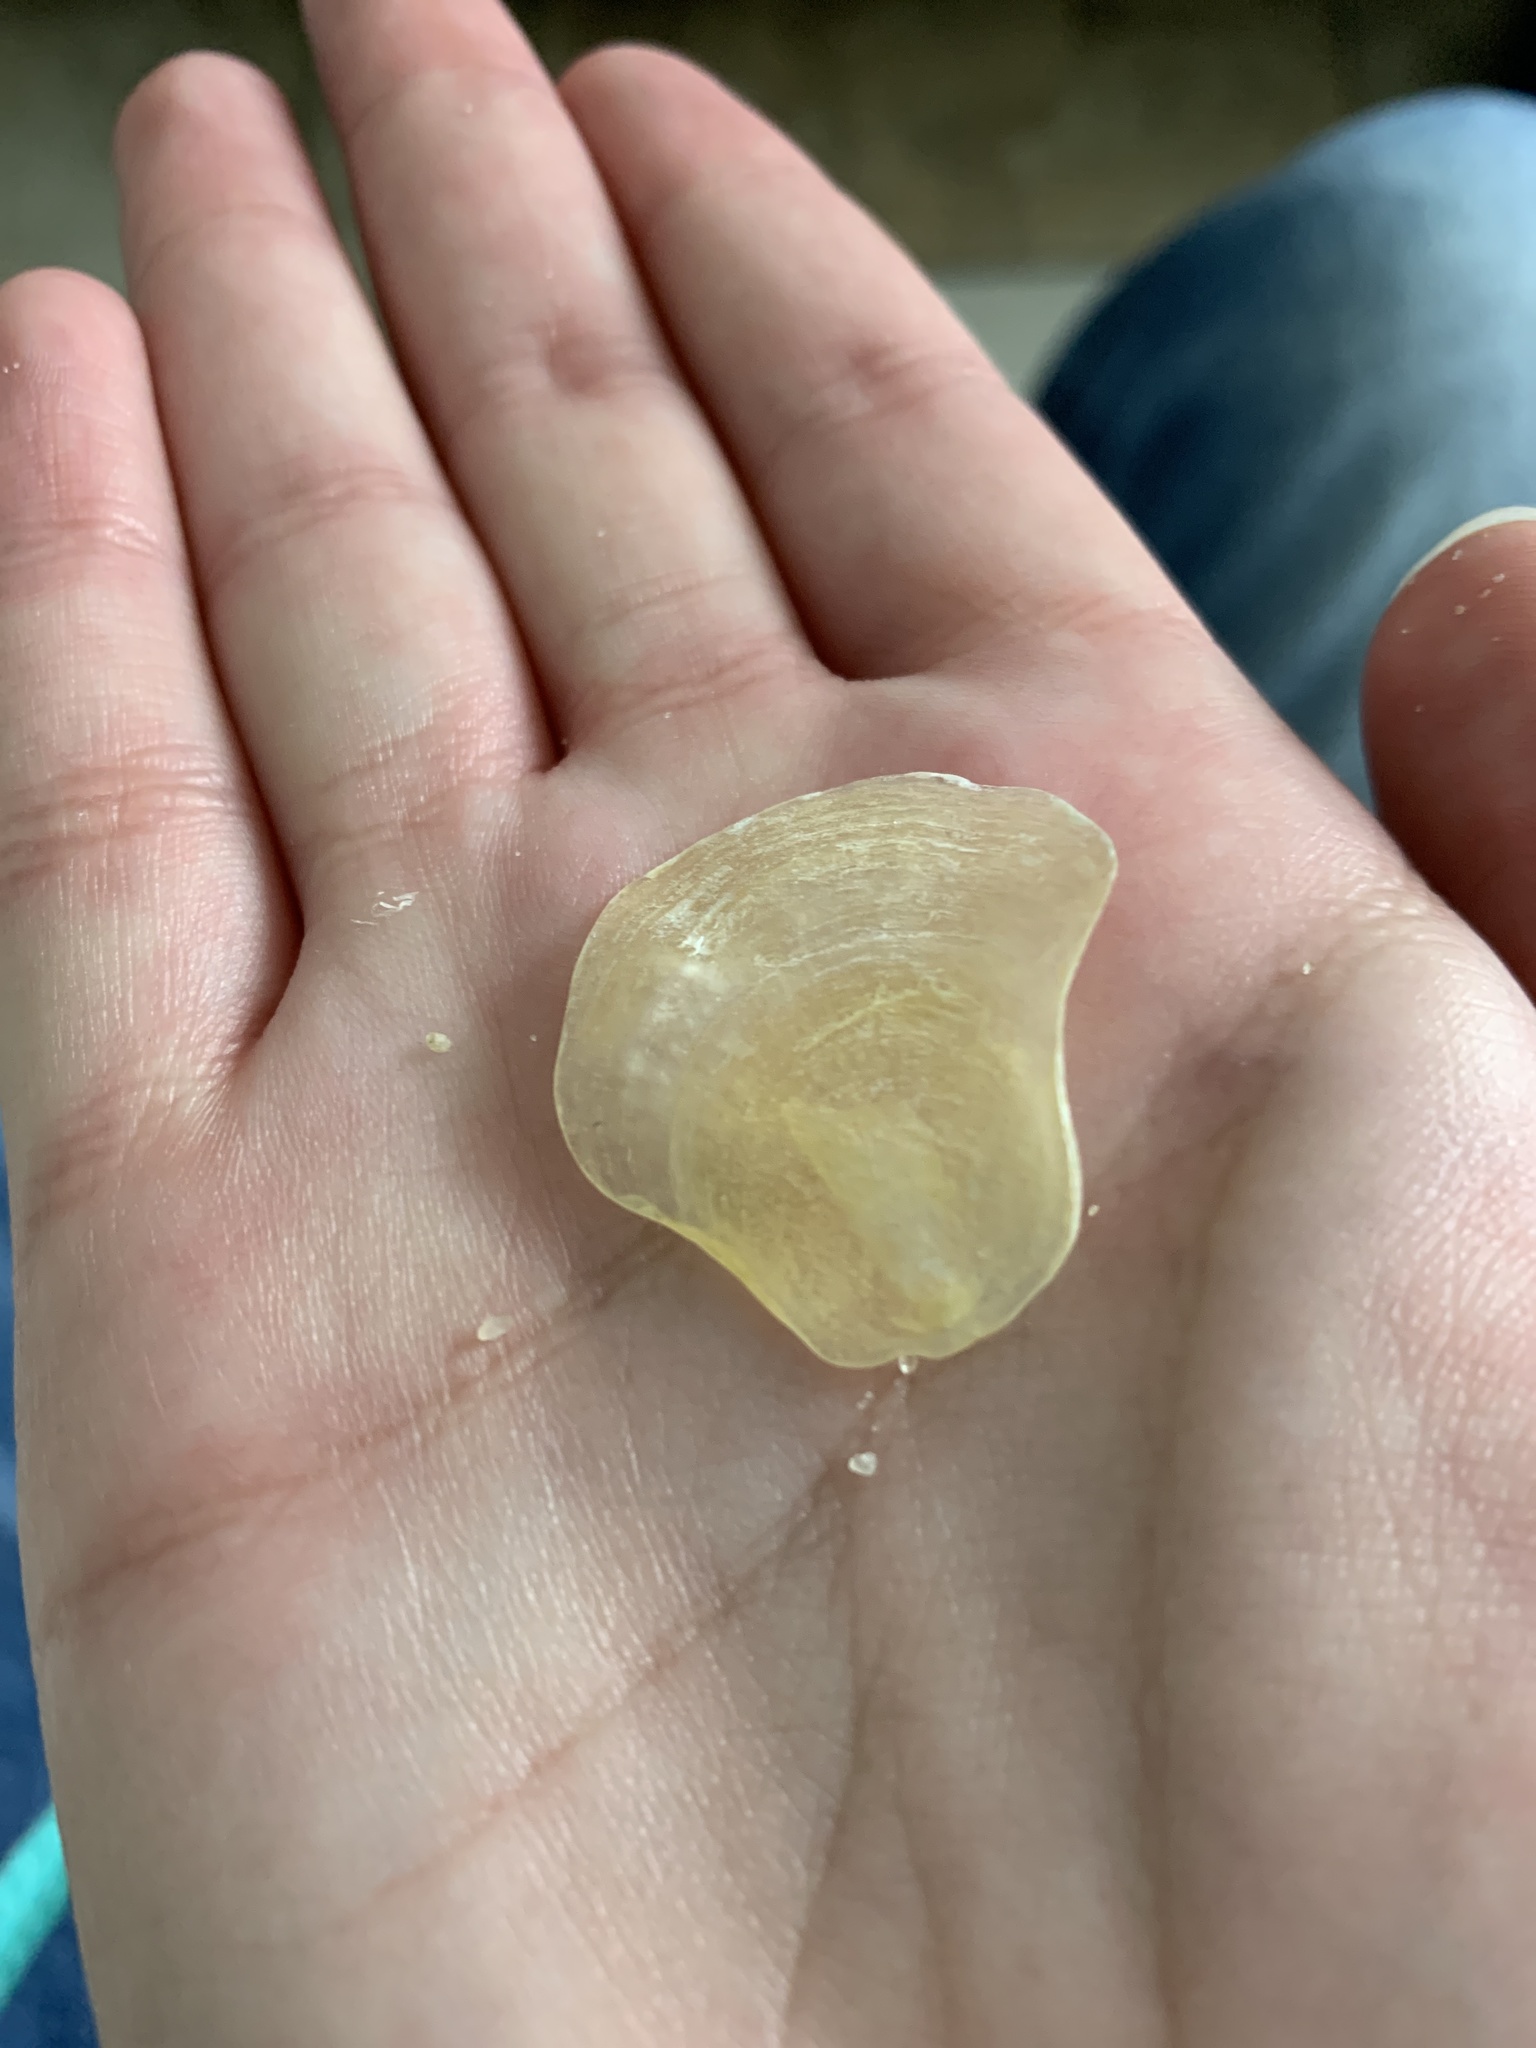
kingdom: Animalia
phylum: Mollusca
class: Bivalvia
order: Pectinida
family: Anomiidae
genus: Anomia
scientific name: Anomia simplex
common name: Common jingle shell
